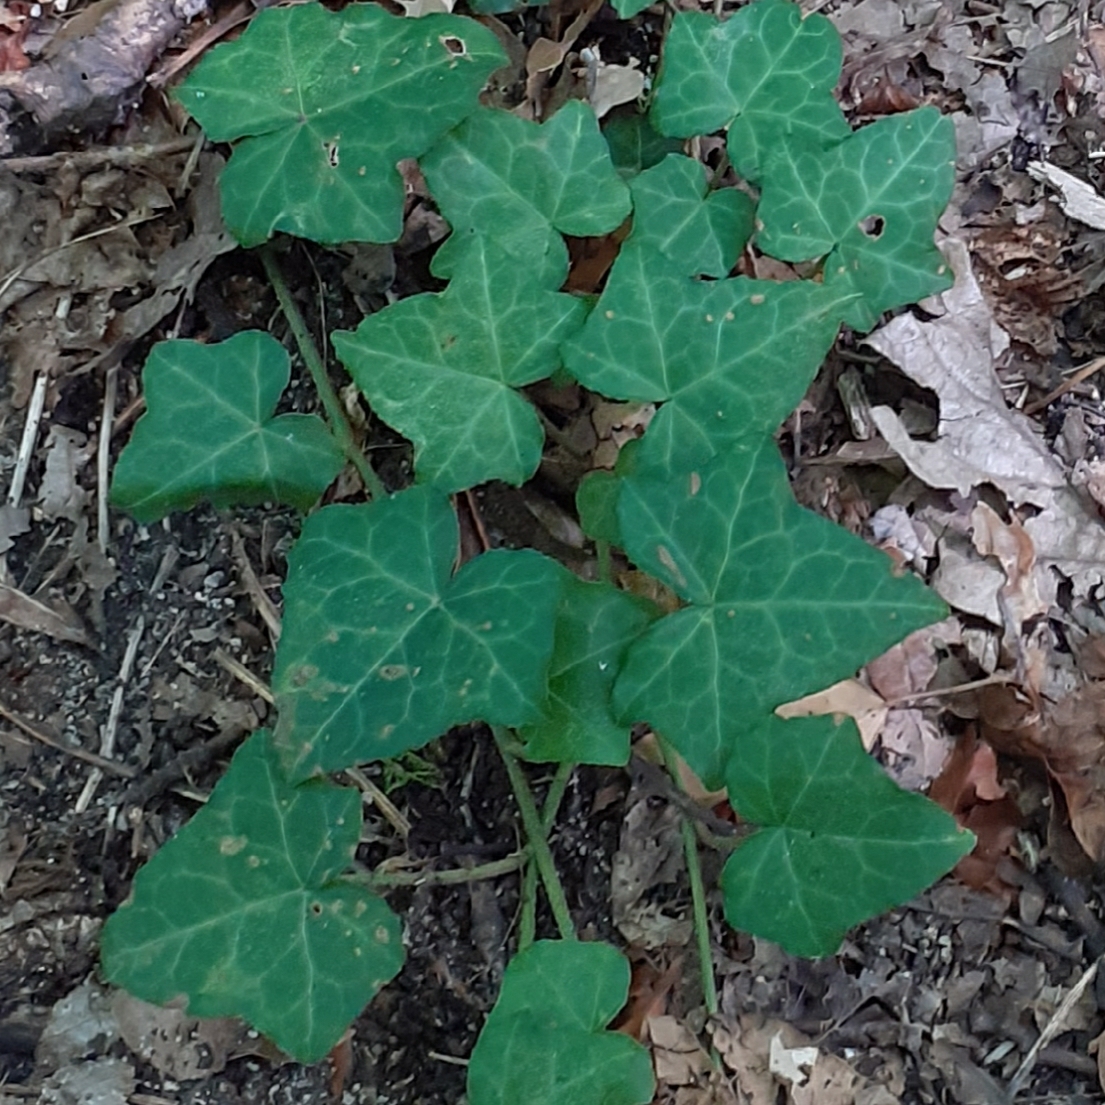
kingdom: Plantae
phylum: Tracheophyta
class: Magnoliopsida
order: Apiales
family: Araliaceae
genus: Hedera
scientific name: Hedera helix
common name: Ivy
